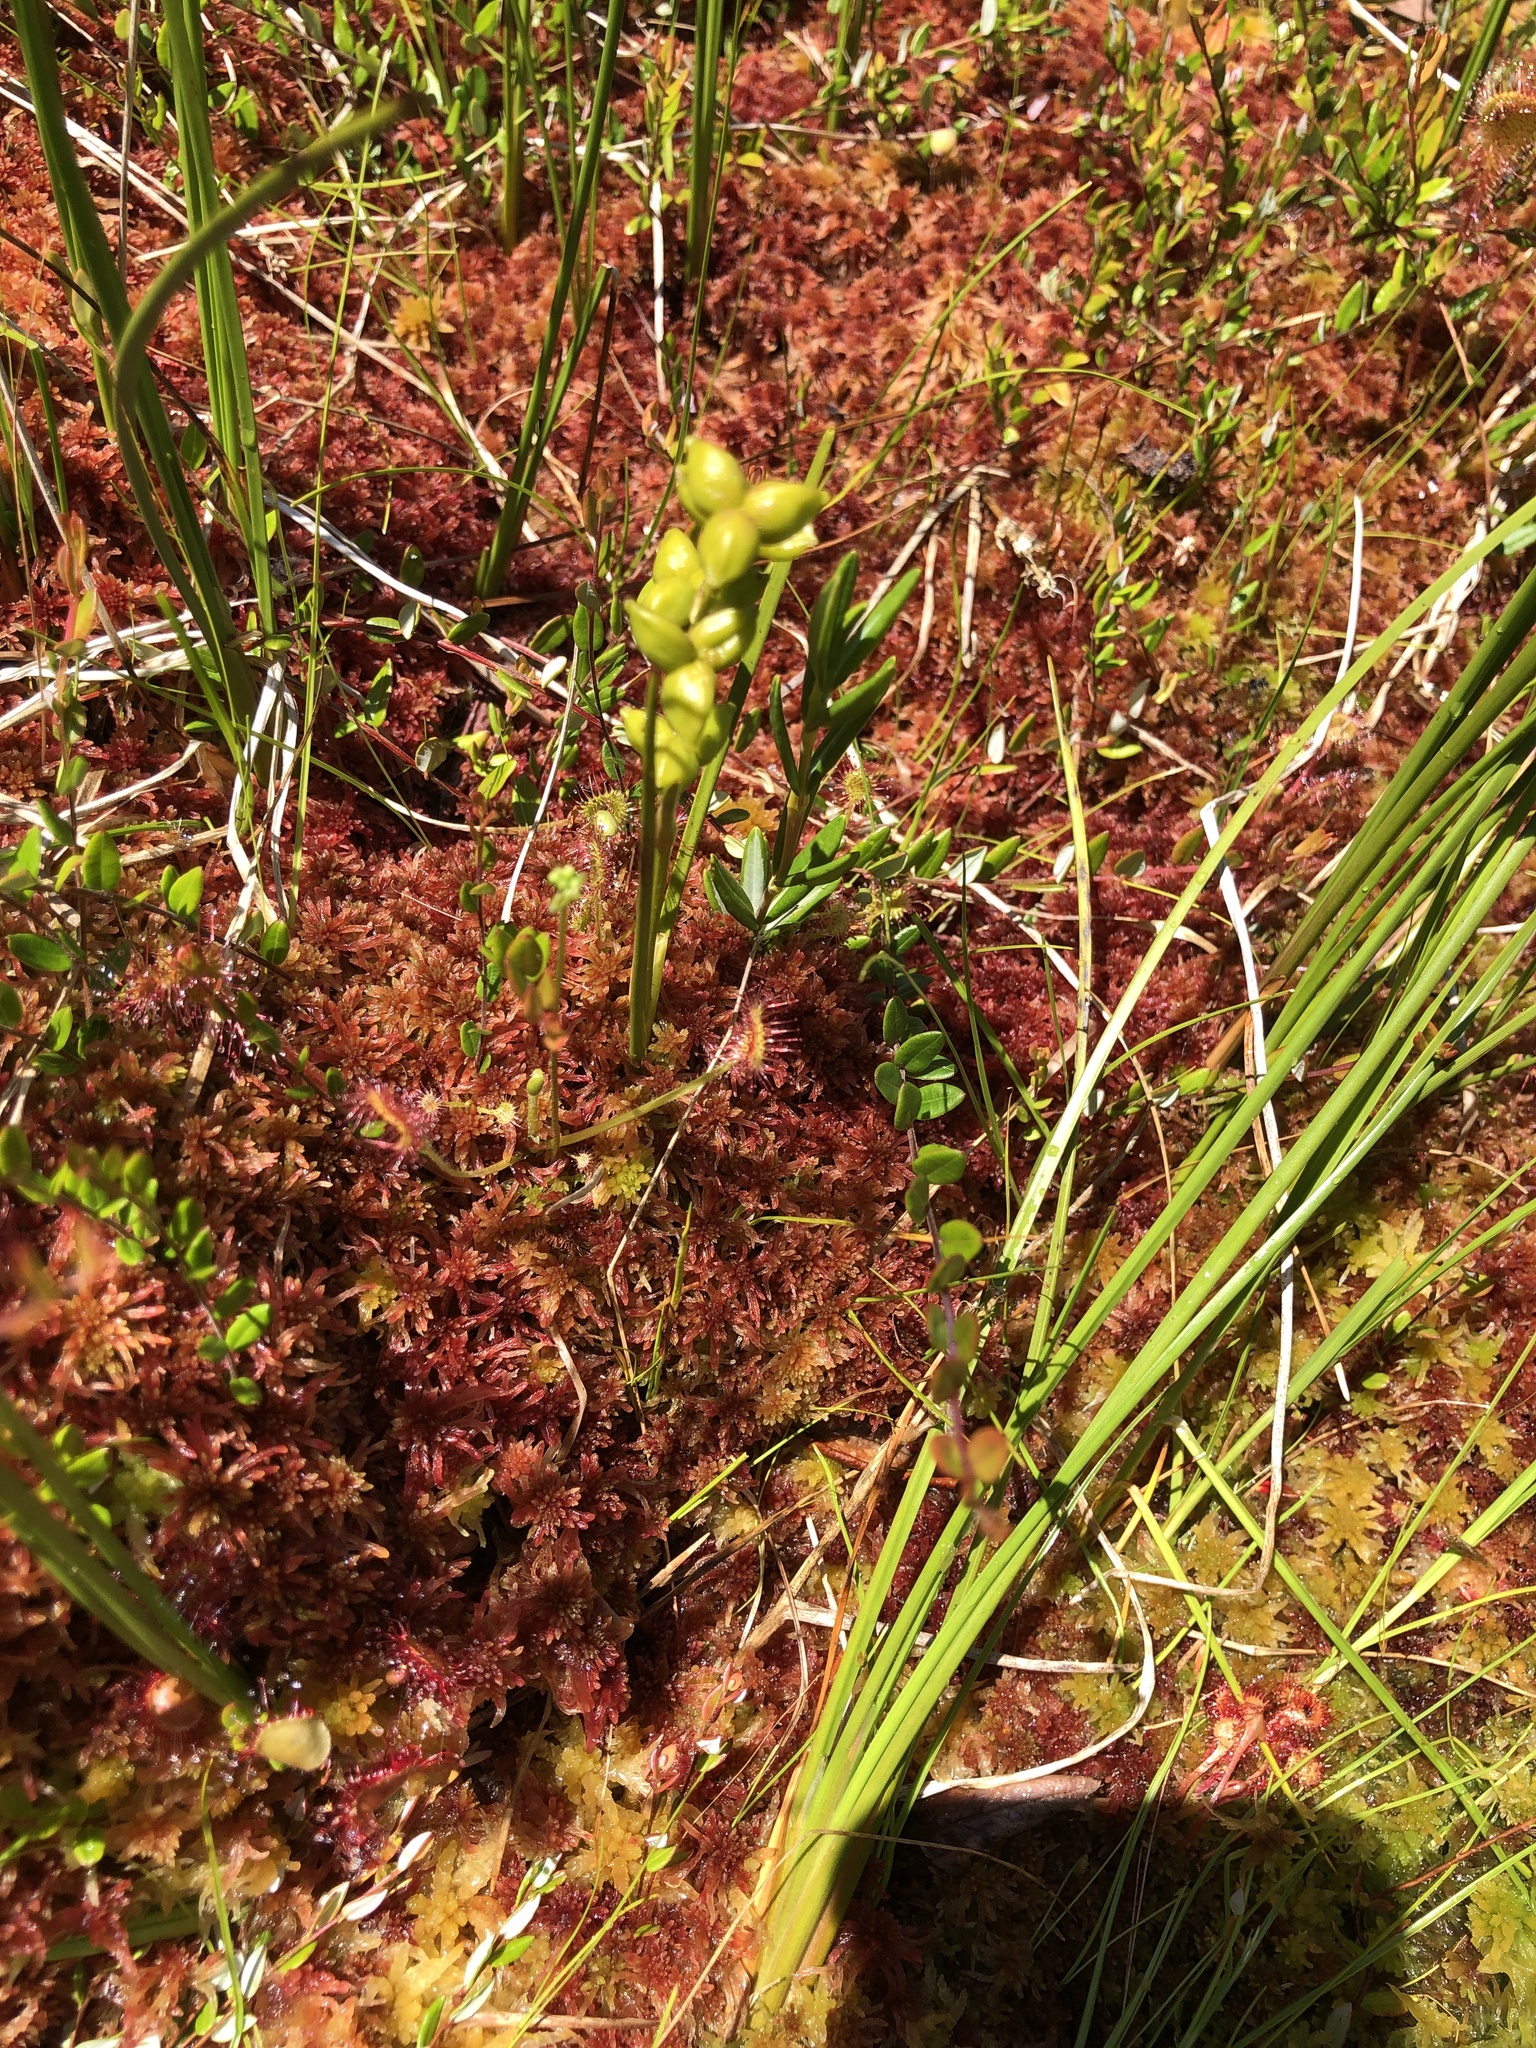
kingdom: Plantae
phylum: Tracheophyta
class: Liliopsida
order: Alismatales
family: Scheuchzeriaceae
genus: Scheuchzeria
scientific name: Scheuchzeria palustris
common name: Rannoch-rush
